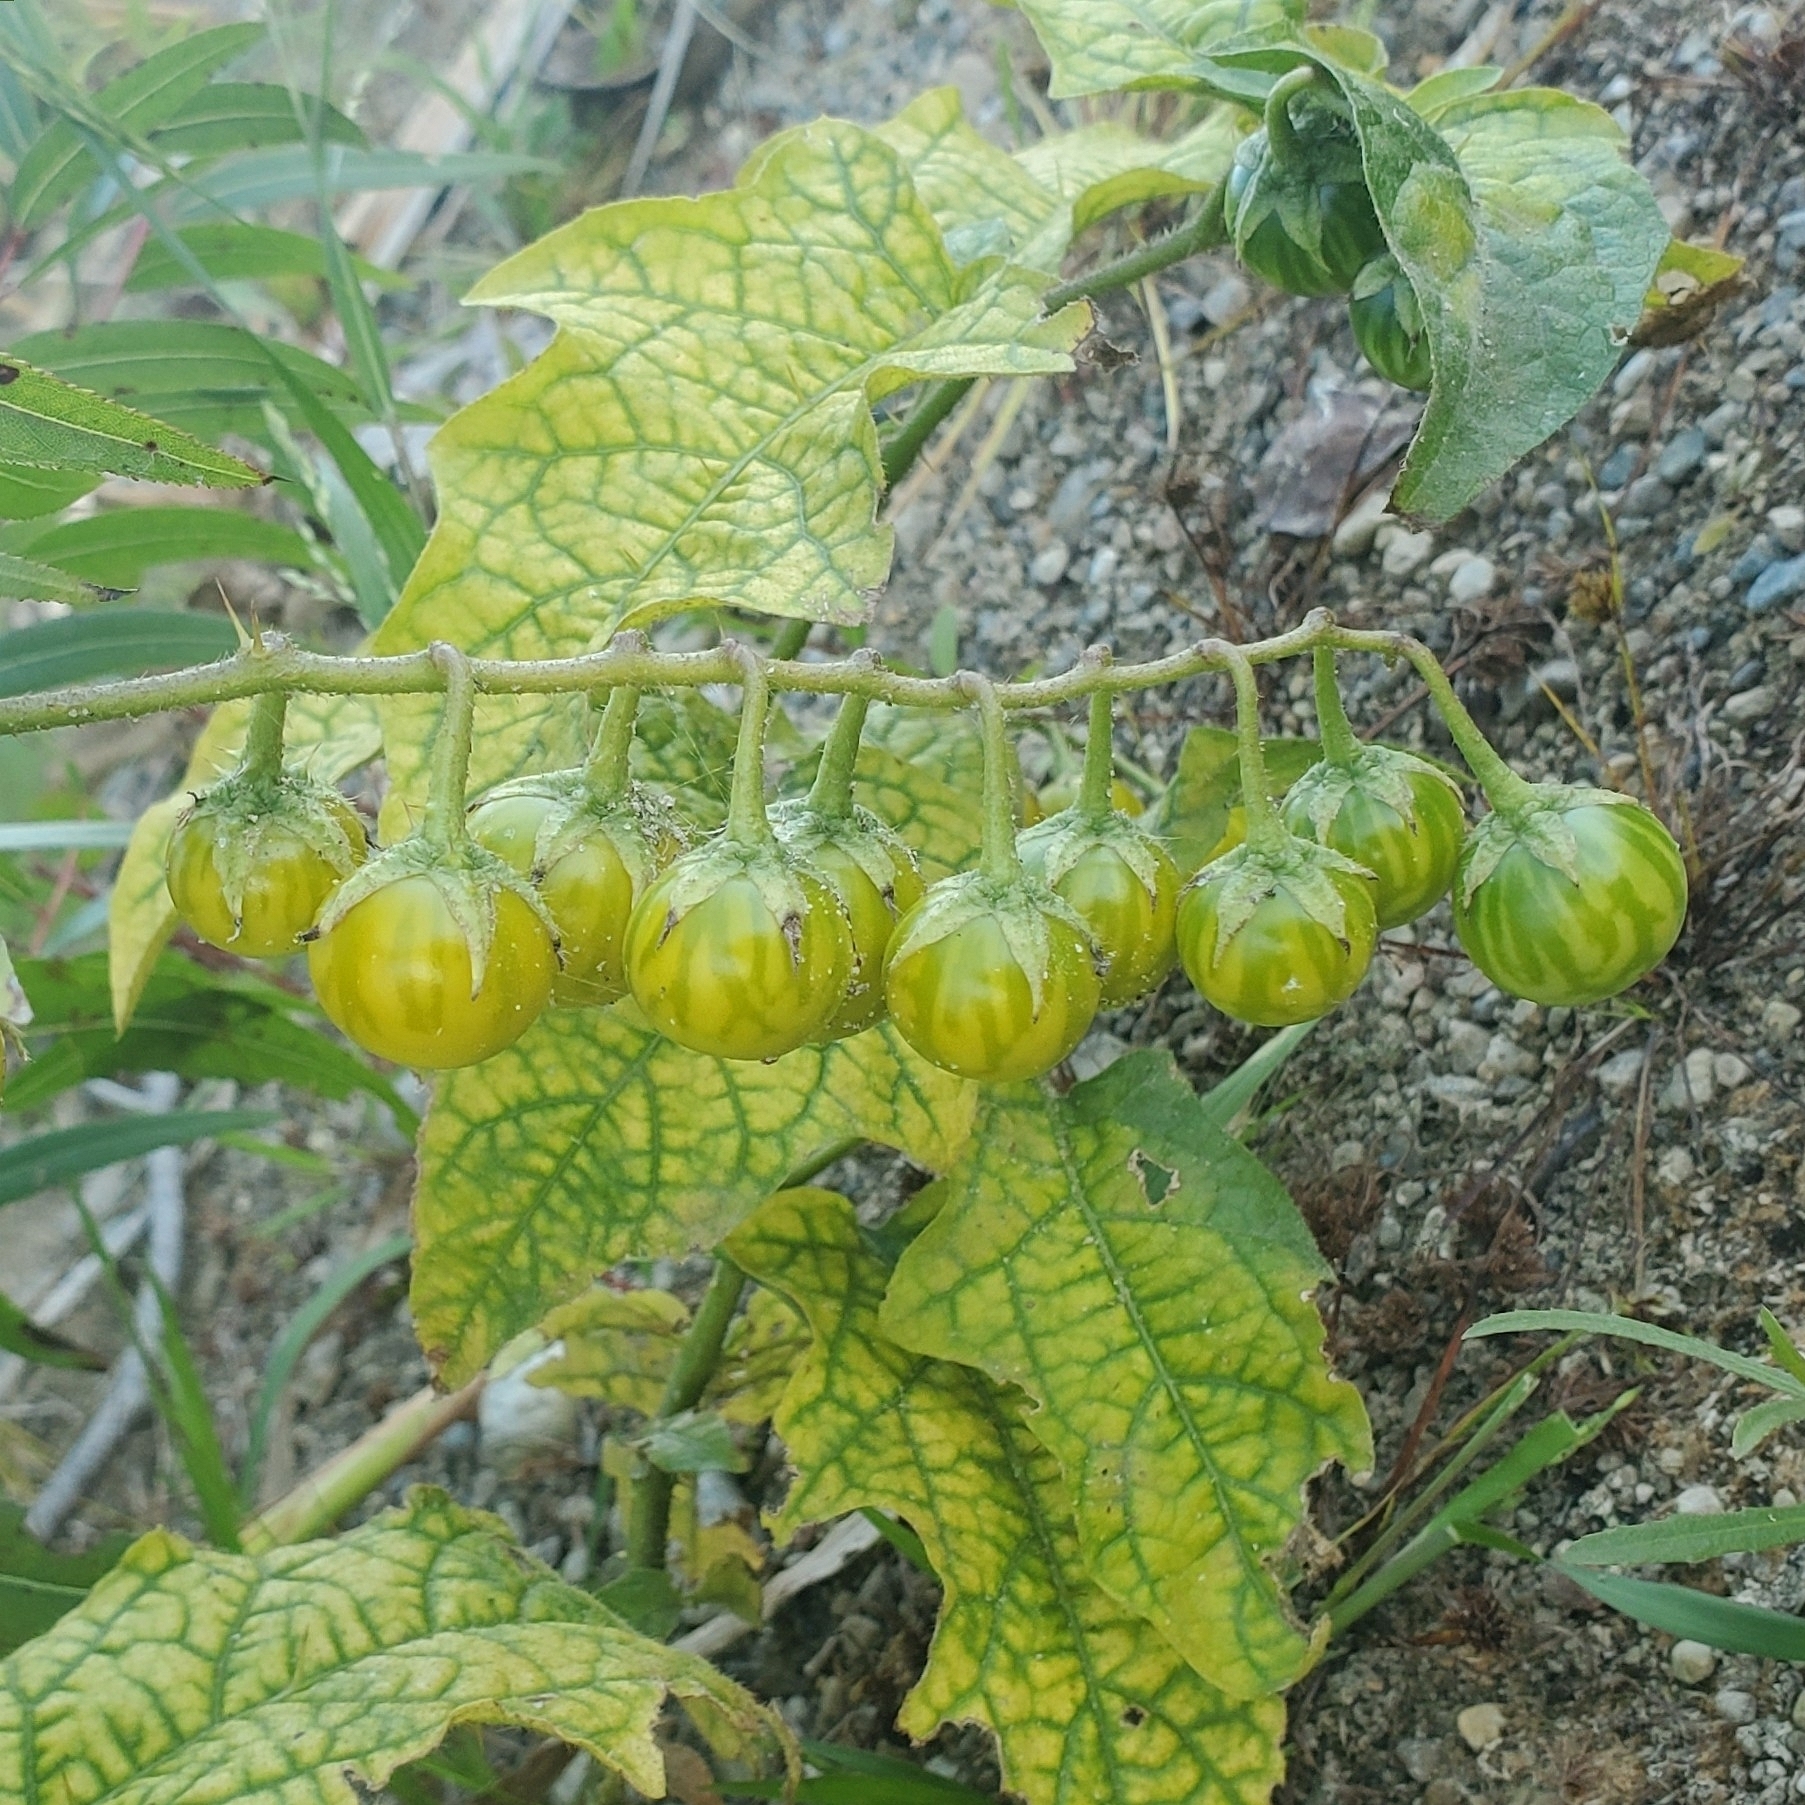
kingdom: Plantae
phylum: Tracheophyta
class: Magnoliopsida
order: Solanales
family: Solanaceae
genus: Solanum
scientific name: Solanum carolinense
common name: Horse-nettle
